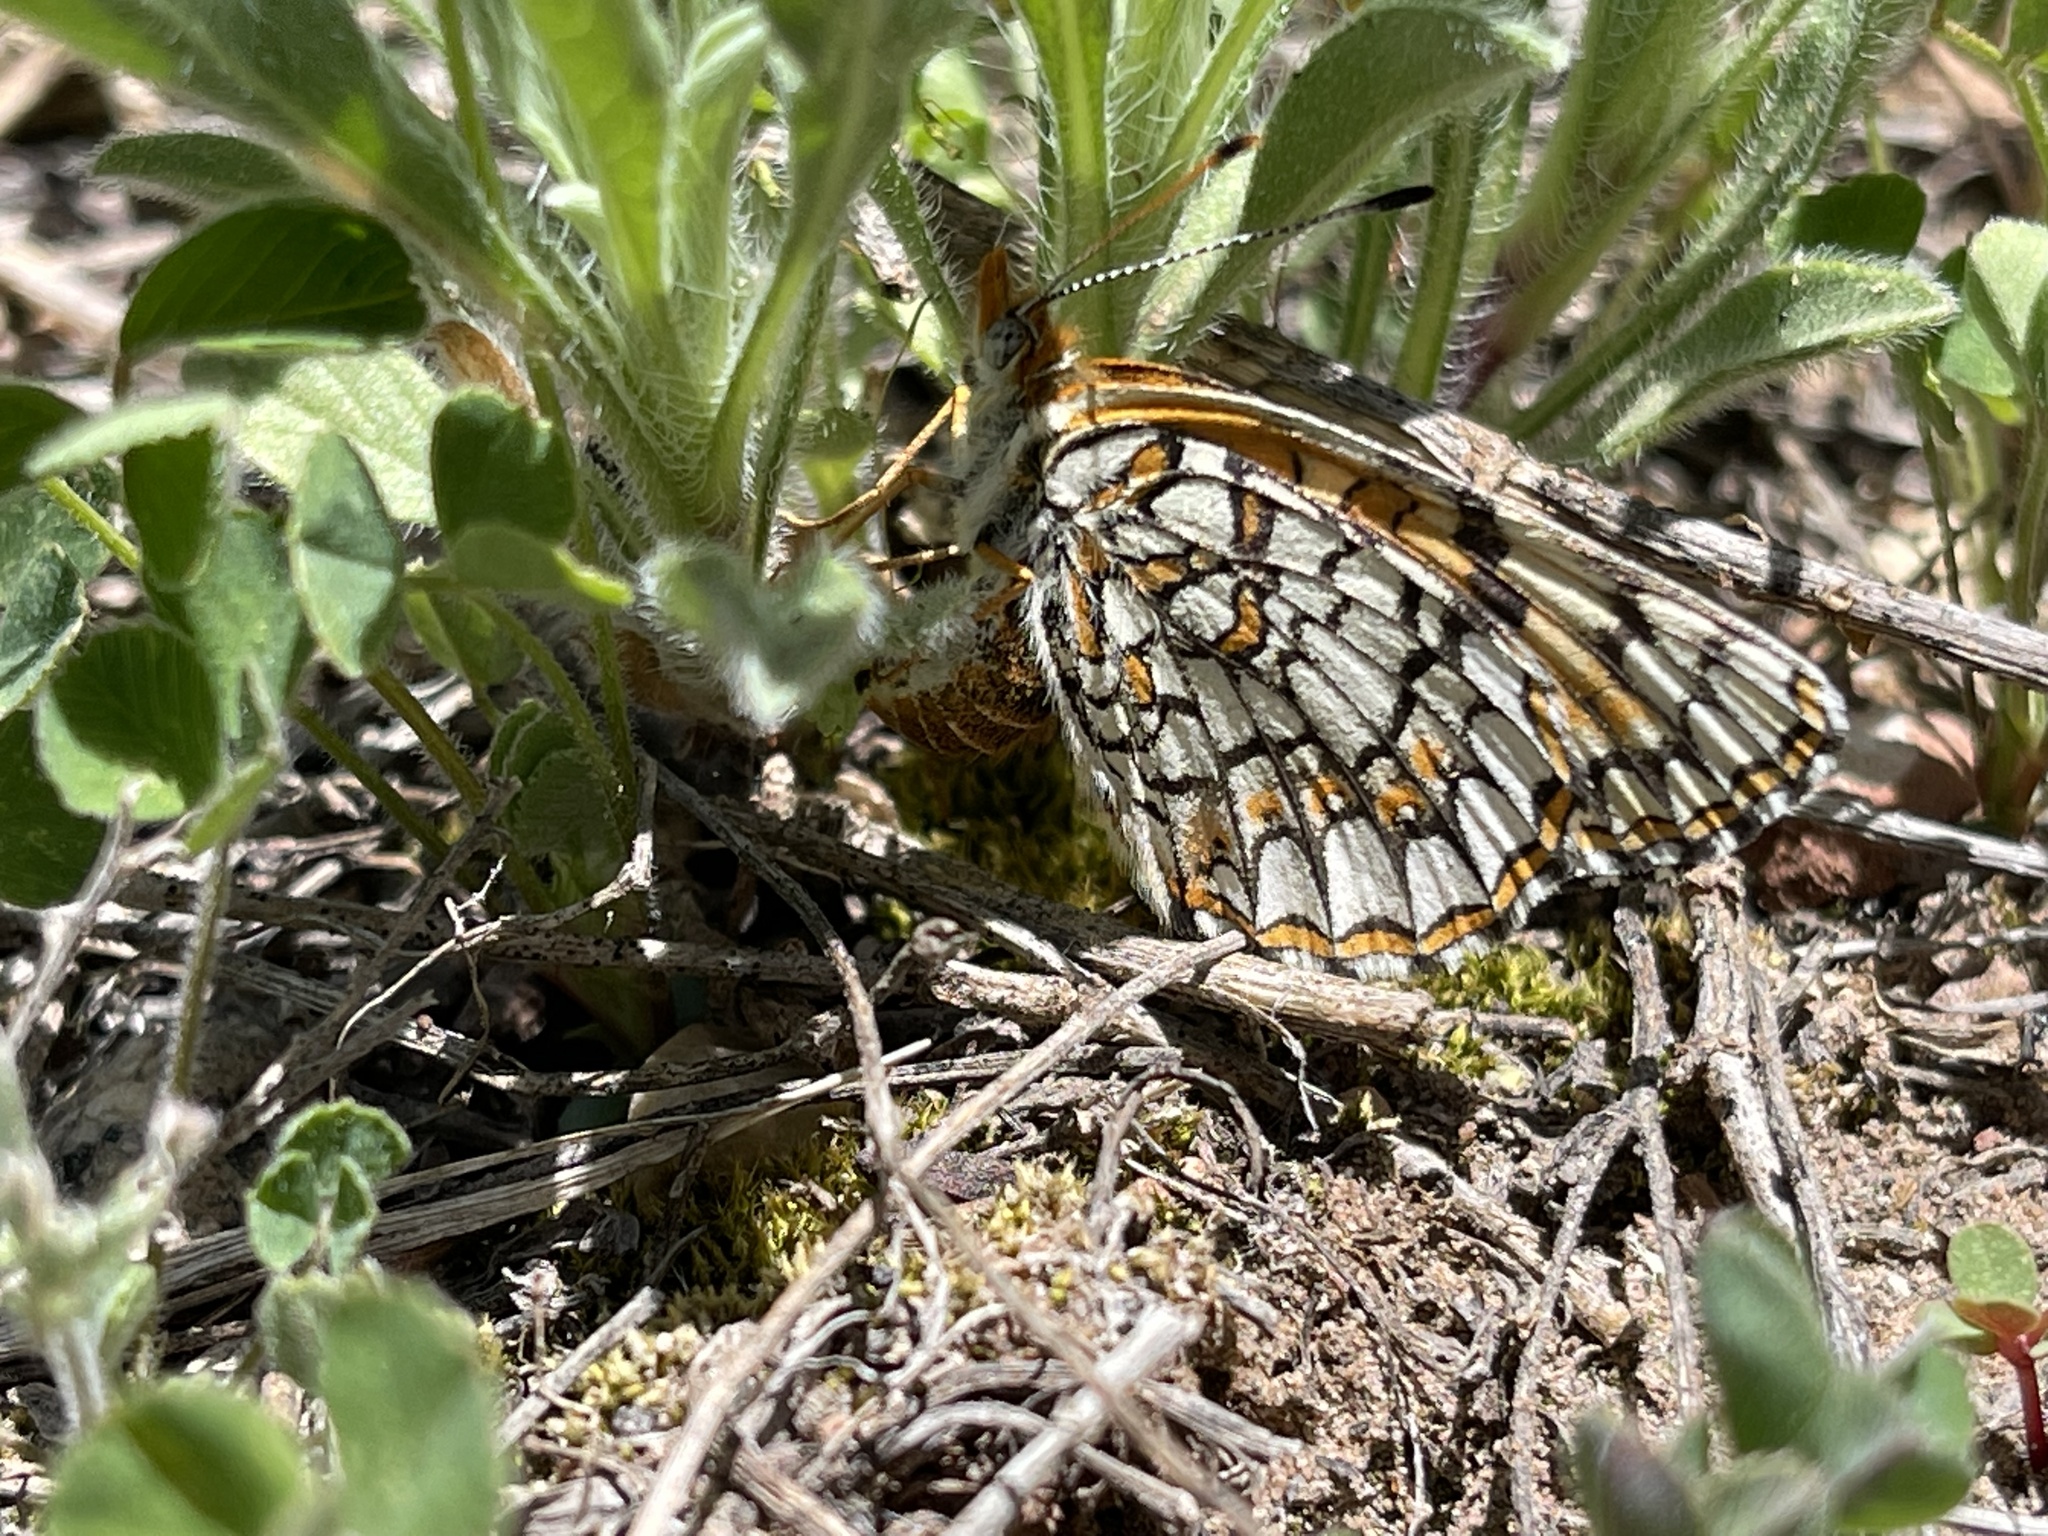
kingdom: Animalia
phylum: Arthropoda
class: Insecta
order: Lepidoptera
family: Nymphalidae
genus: Chlosyne
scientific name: Chlosyne acastus
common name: Sagebrush checkerspot
